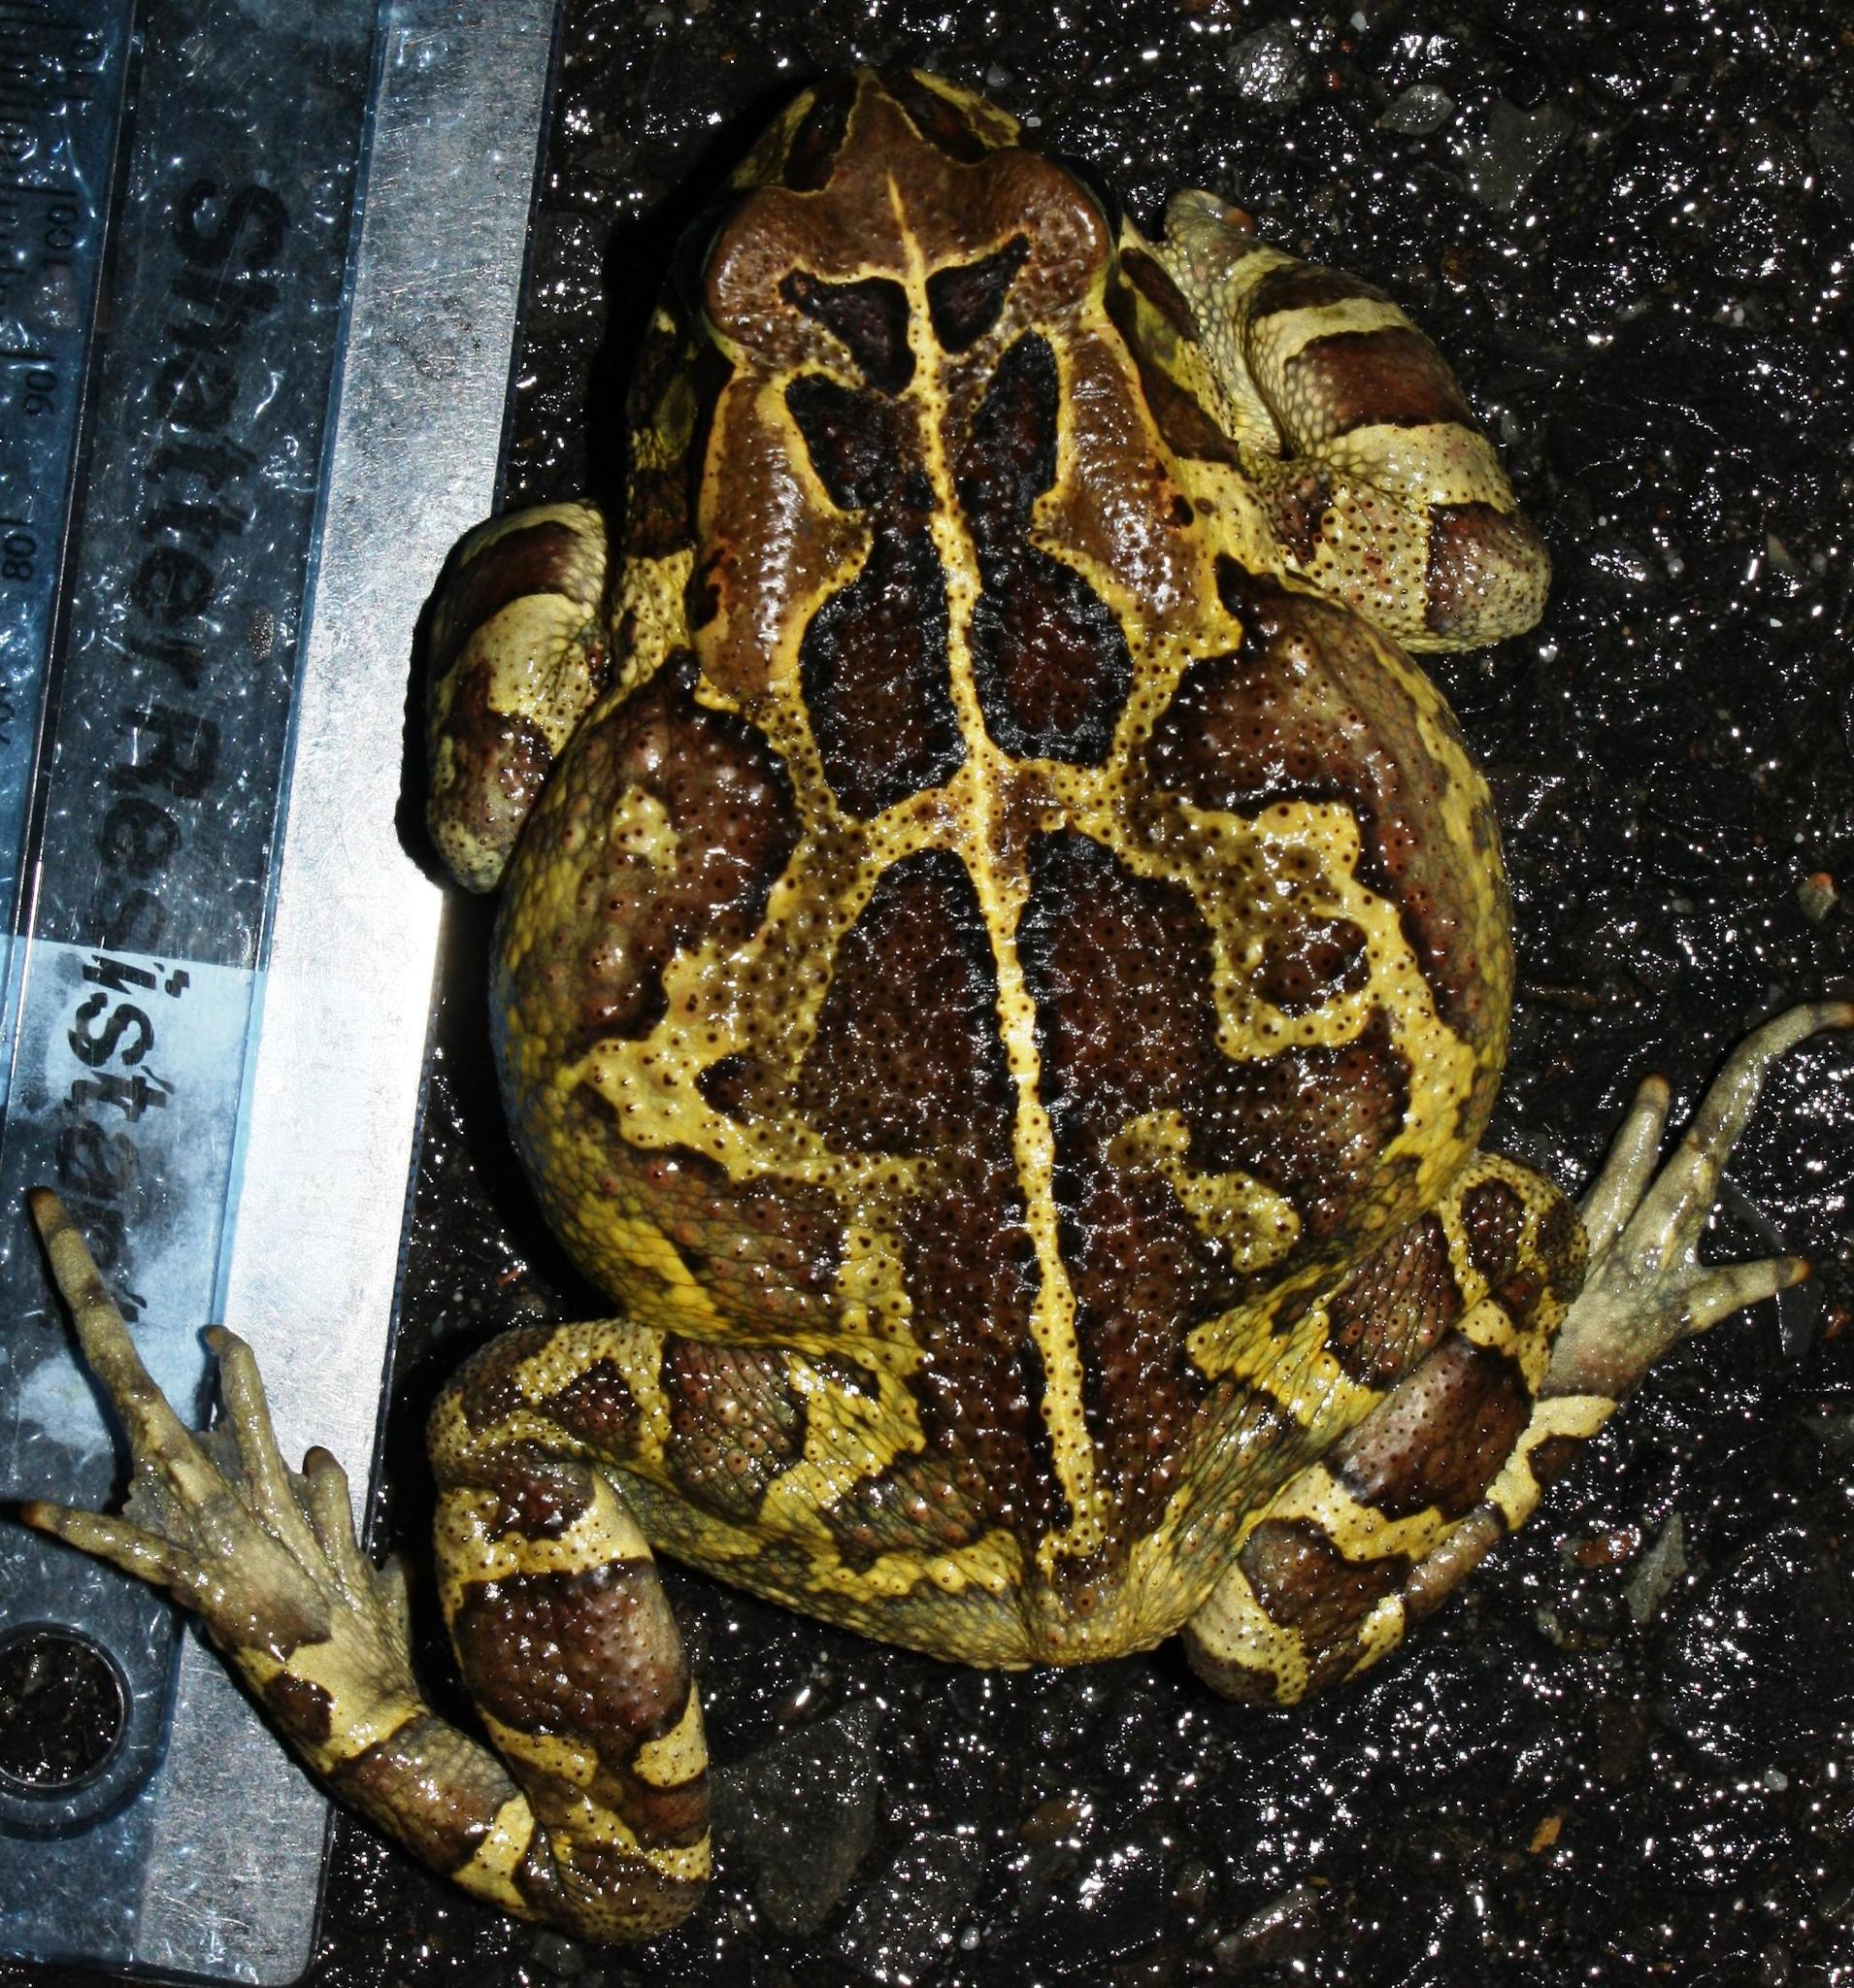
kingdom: Animalia
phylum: Chordata
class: Amphibia
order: Anura
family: Bufonidae
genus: Sclerophrys
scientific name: Sclerophrys pantherina
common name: Panther toad
